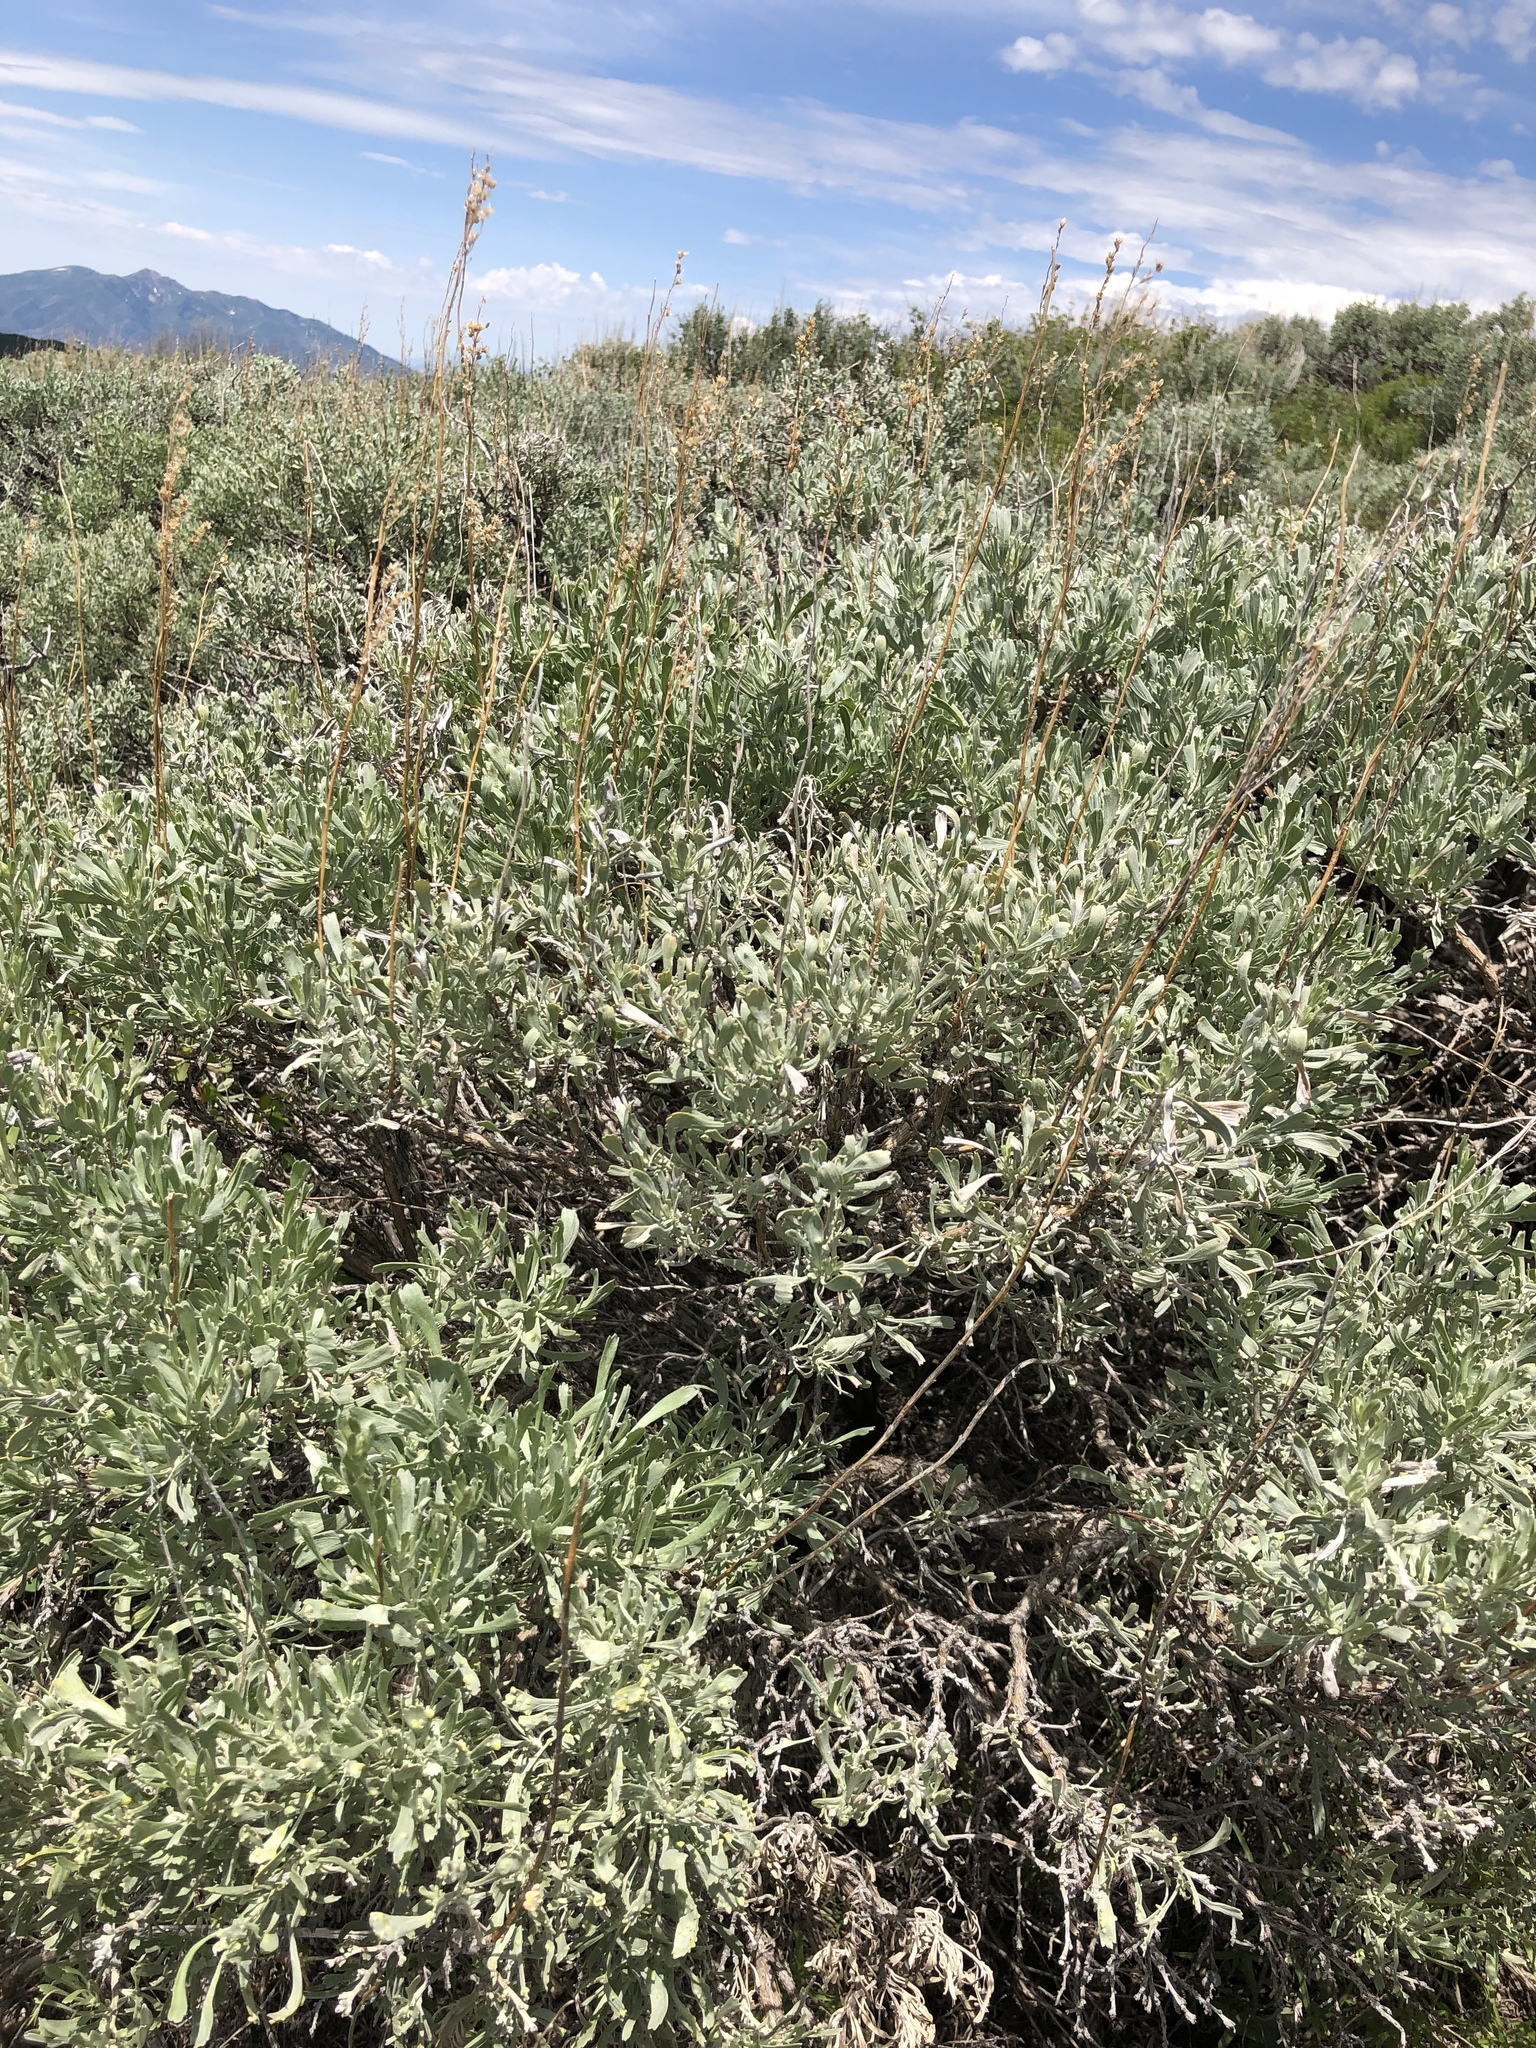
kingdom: Plantae
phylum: Tracheophyta
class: Magnoliopsida
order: Asterales
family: Asteraceae
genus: Artemisia
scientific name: Artemisia tridentata
